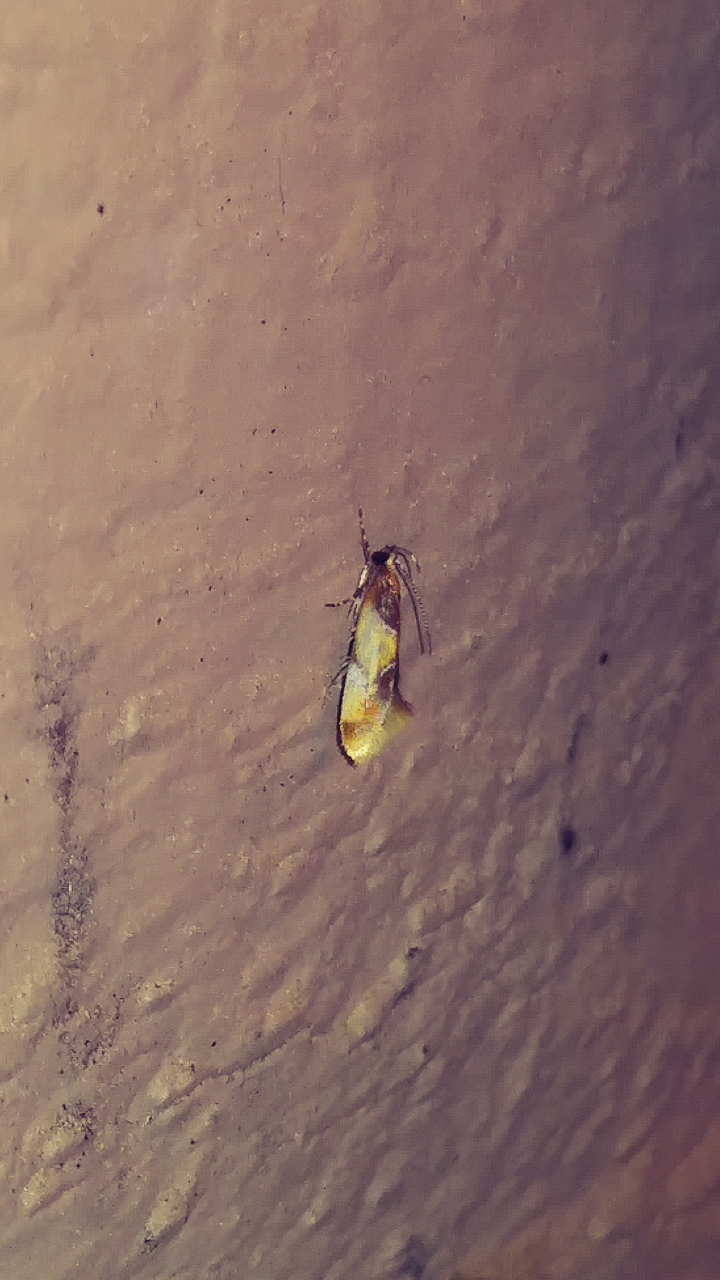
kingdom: Animalia
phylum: Arthropoda
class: Insecta
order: Lepidoptera
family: Oecophoridae
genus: Callima
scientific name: Callima argenticinctella
